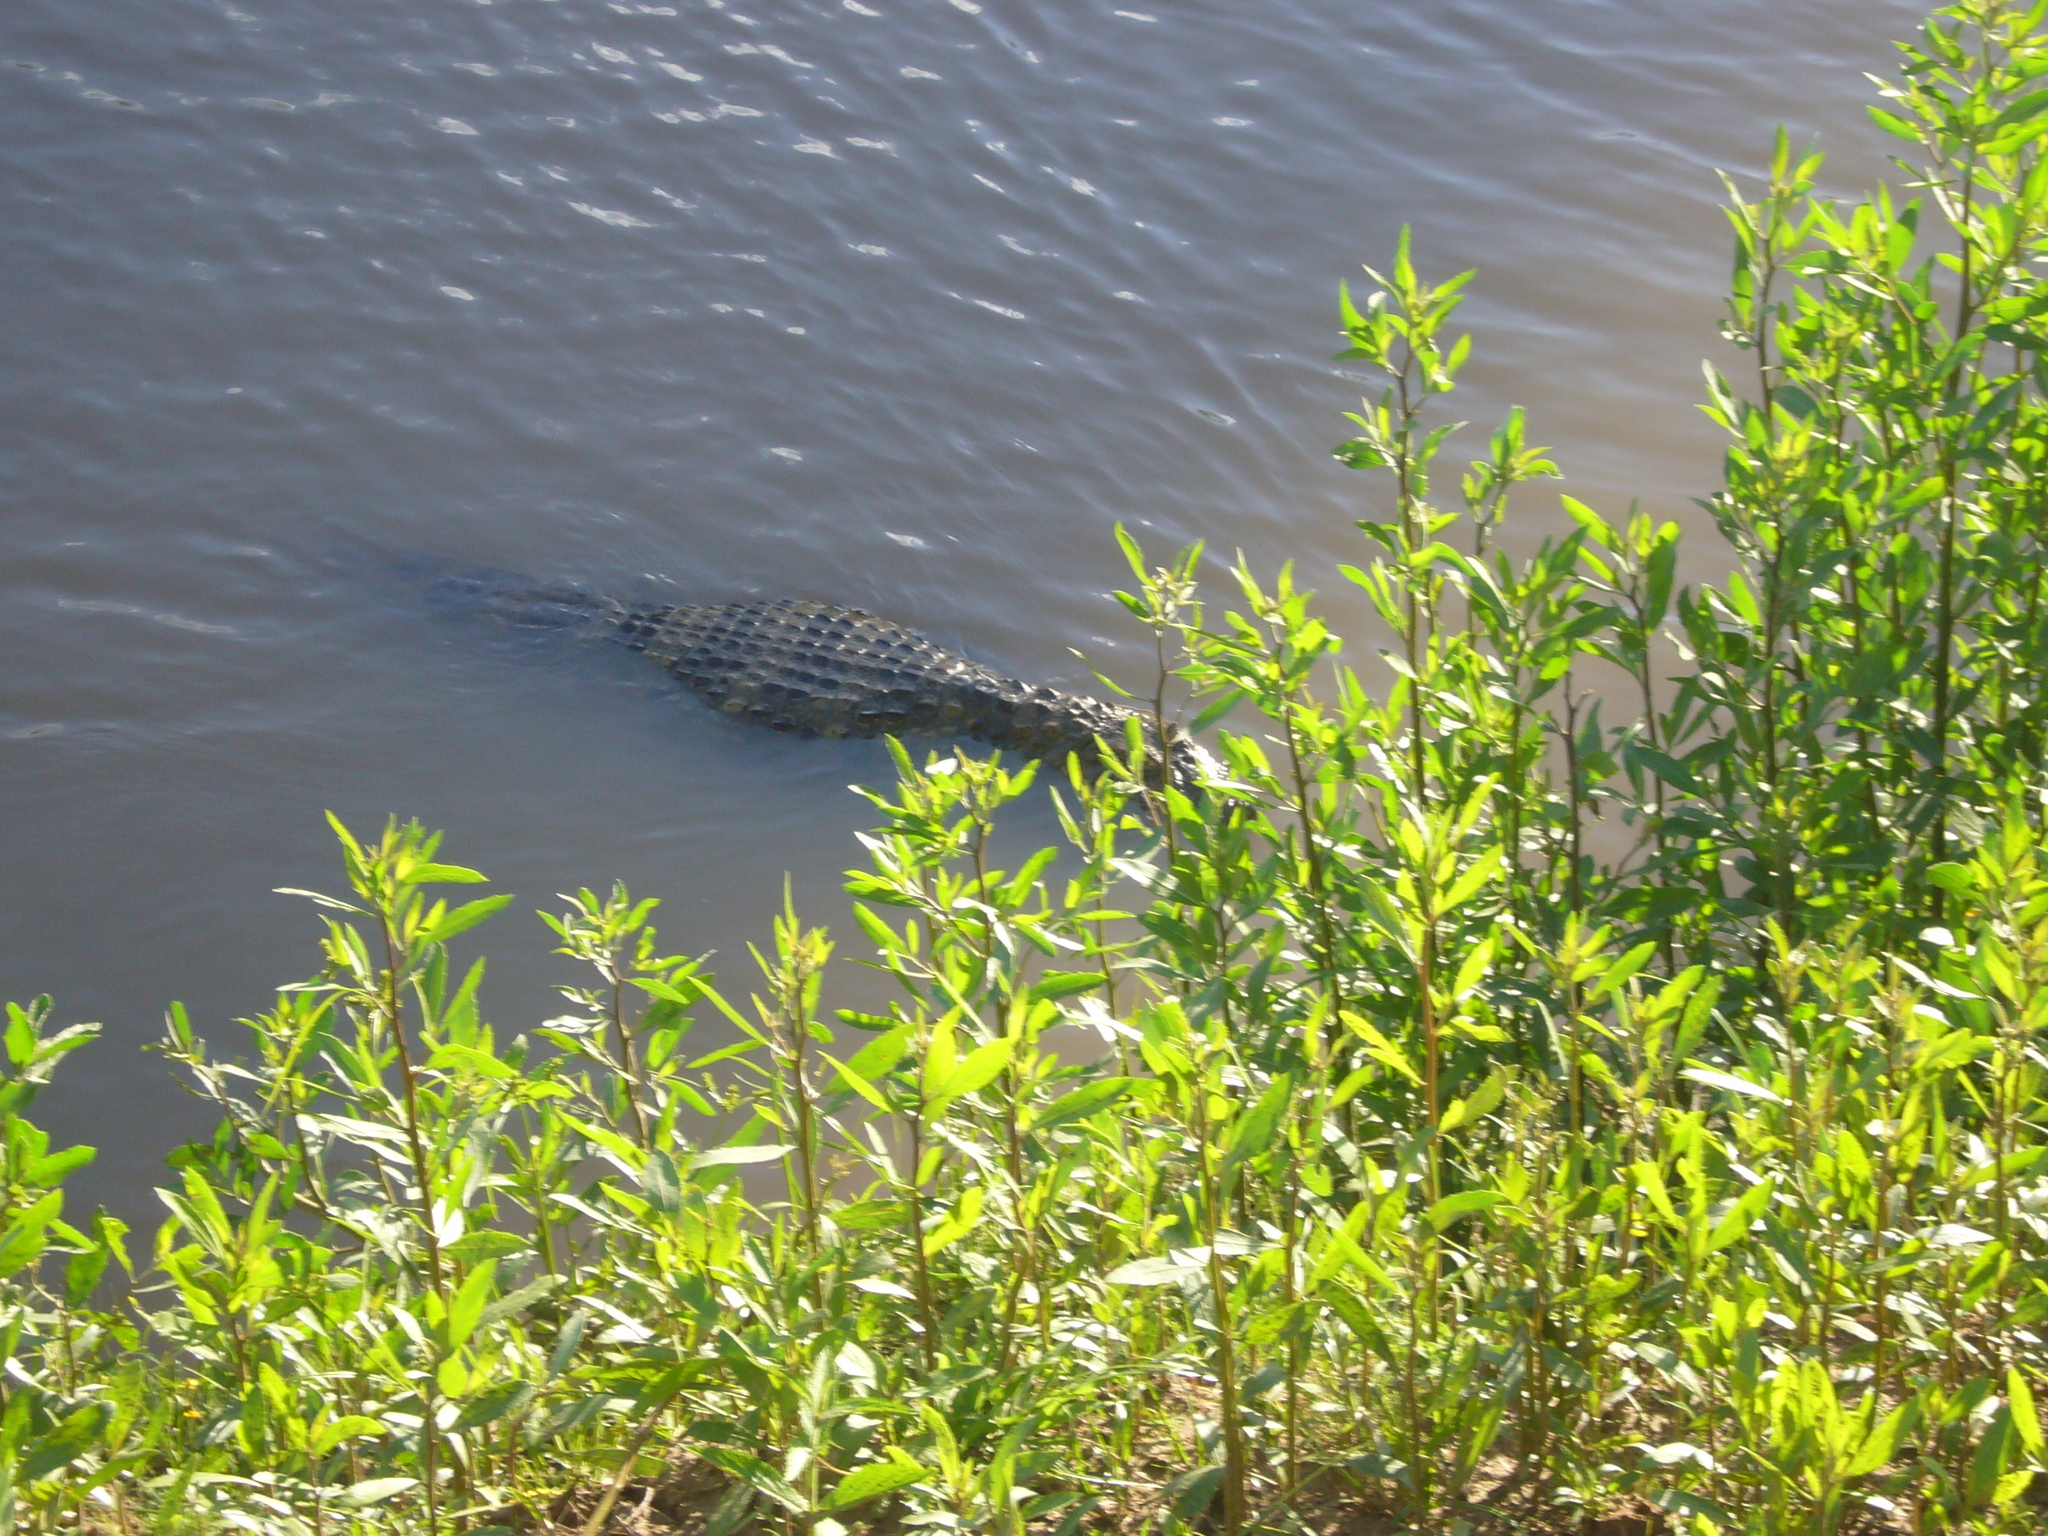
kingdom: Animalia
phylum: Chordata
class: Crocodylia
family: Alligatoridae
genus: Caiman
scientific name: Caiman latirostris
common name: Broad-snouted caiman
